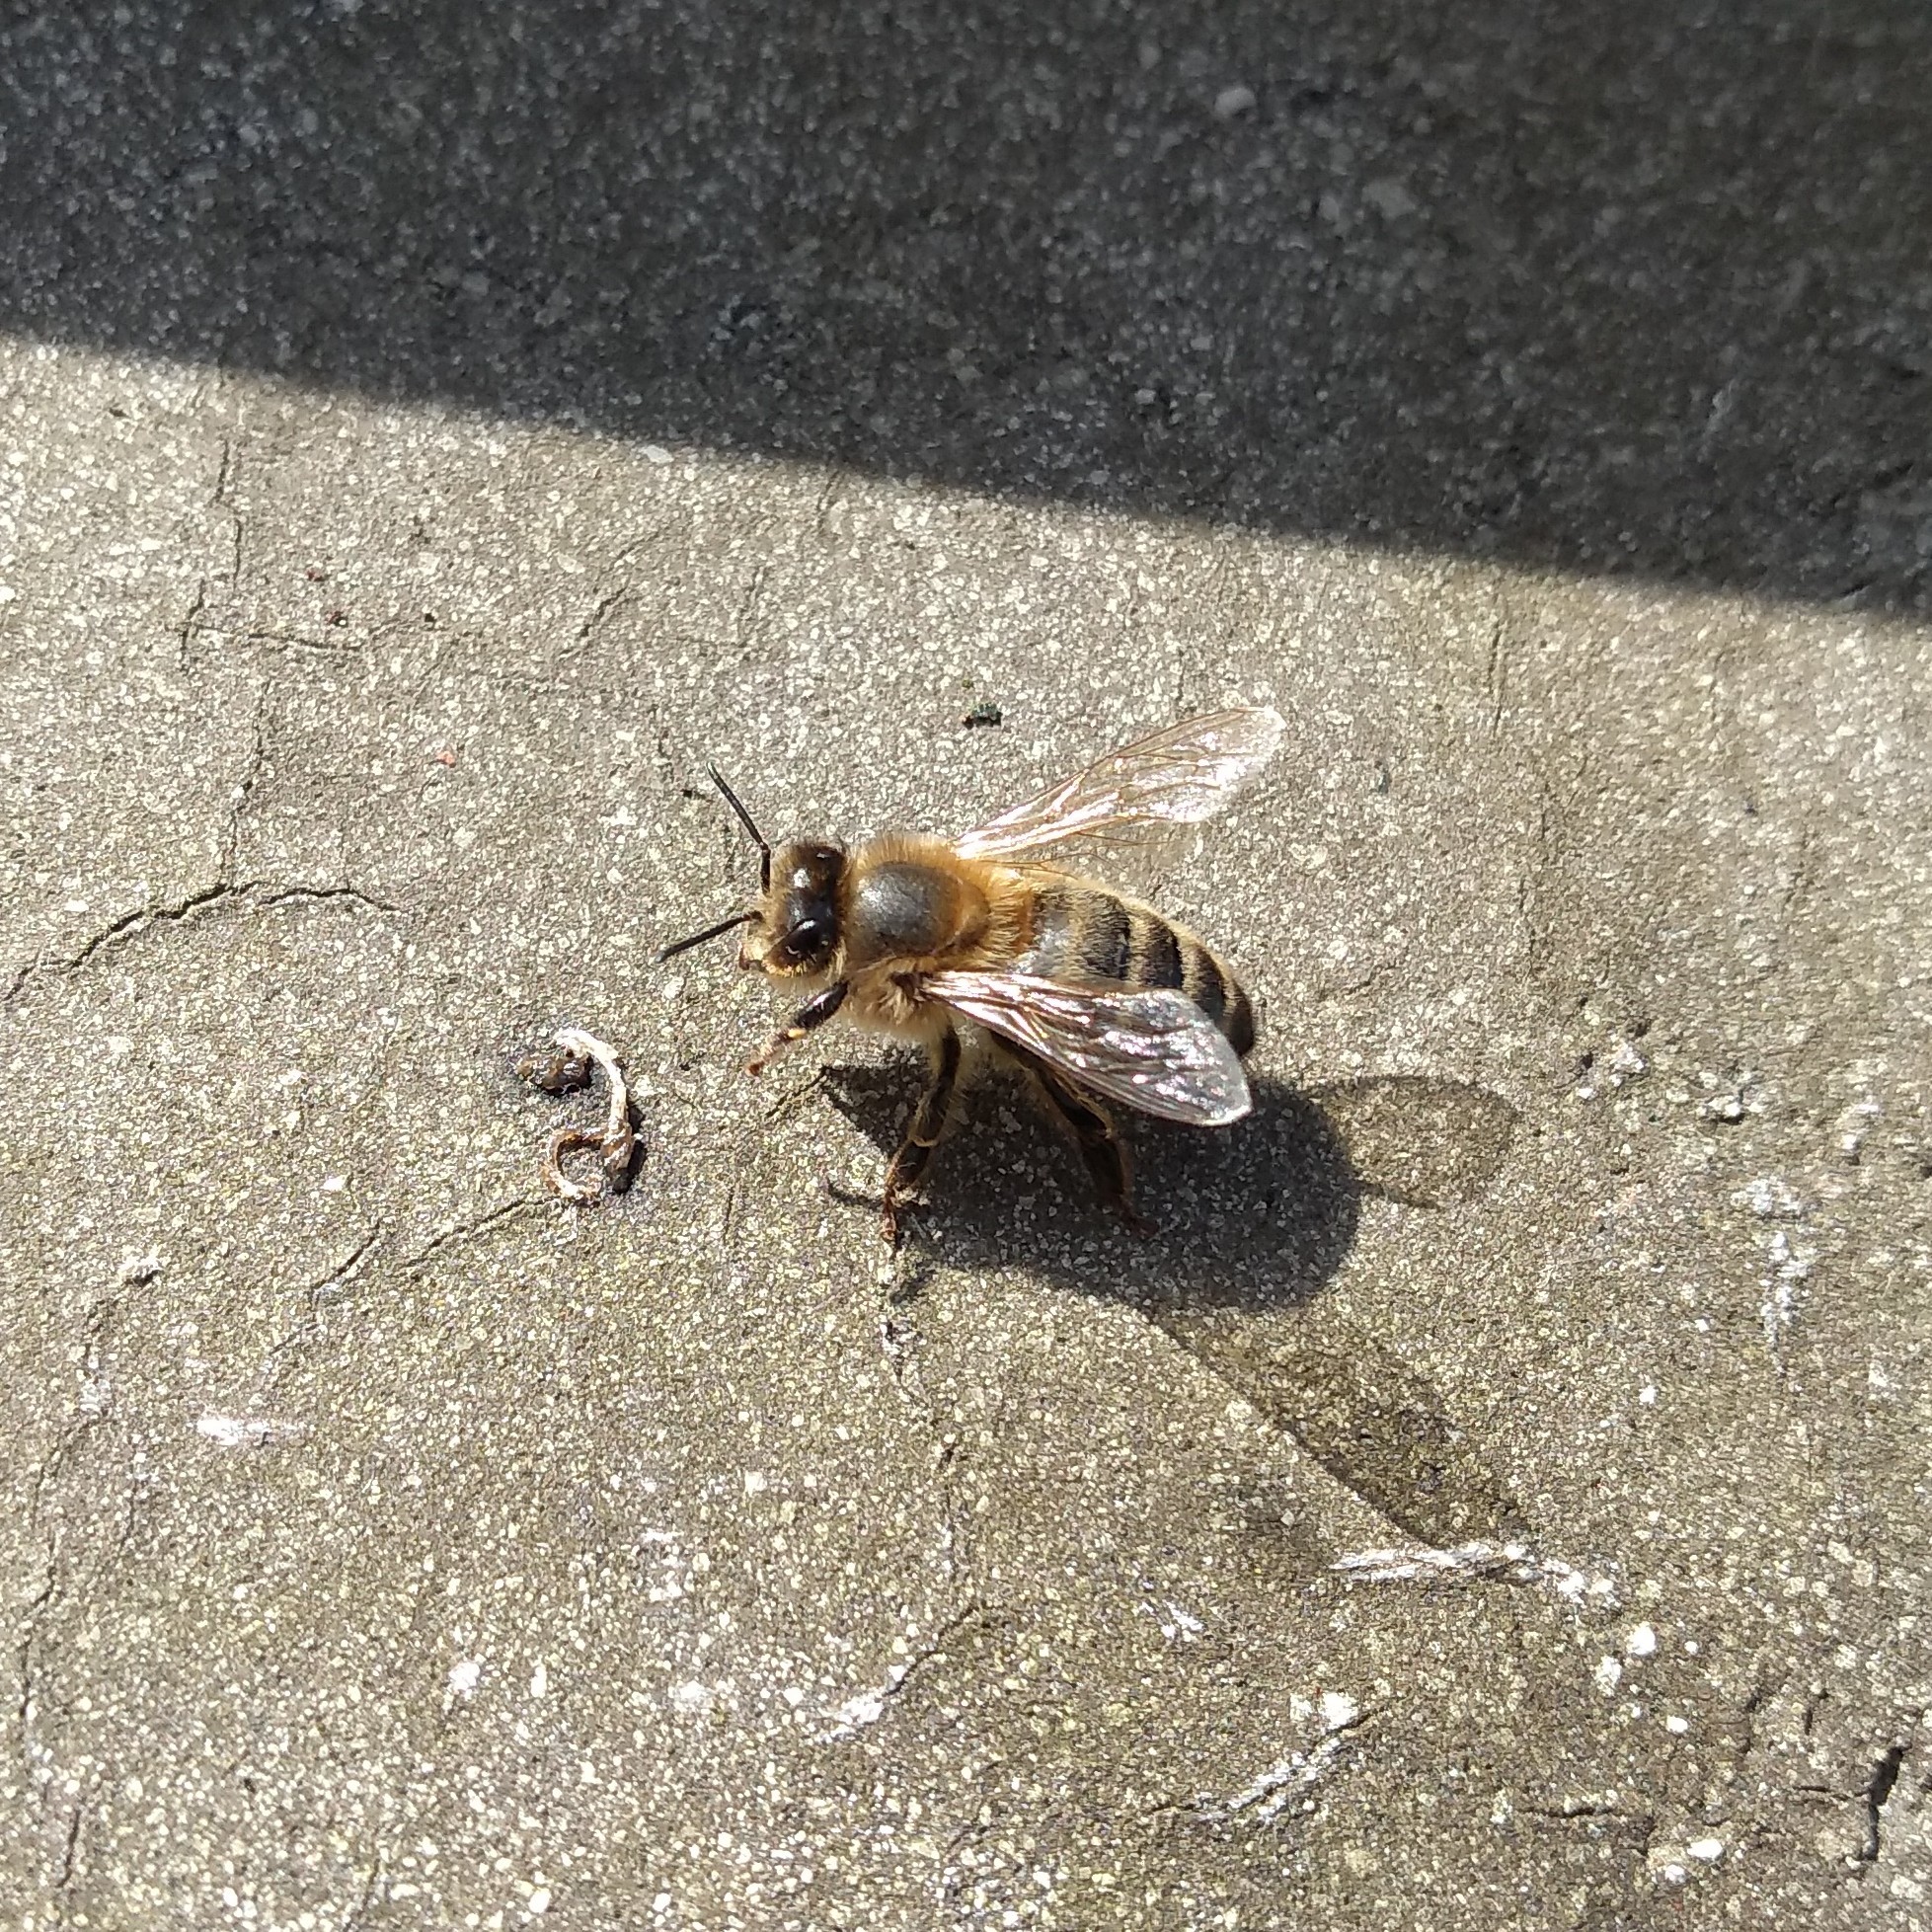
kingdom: Animalia
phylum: Arthropoda
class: Insecta
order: Hymenoptera
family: Apidae
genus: Apis
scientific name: Apis mellifera
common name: Honey bee
